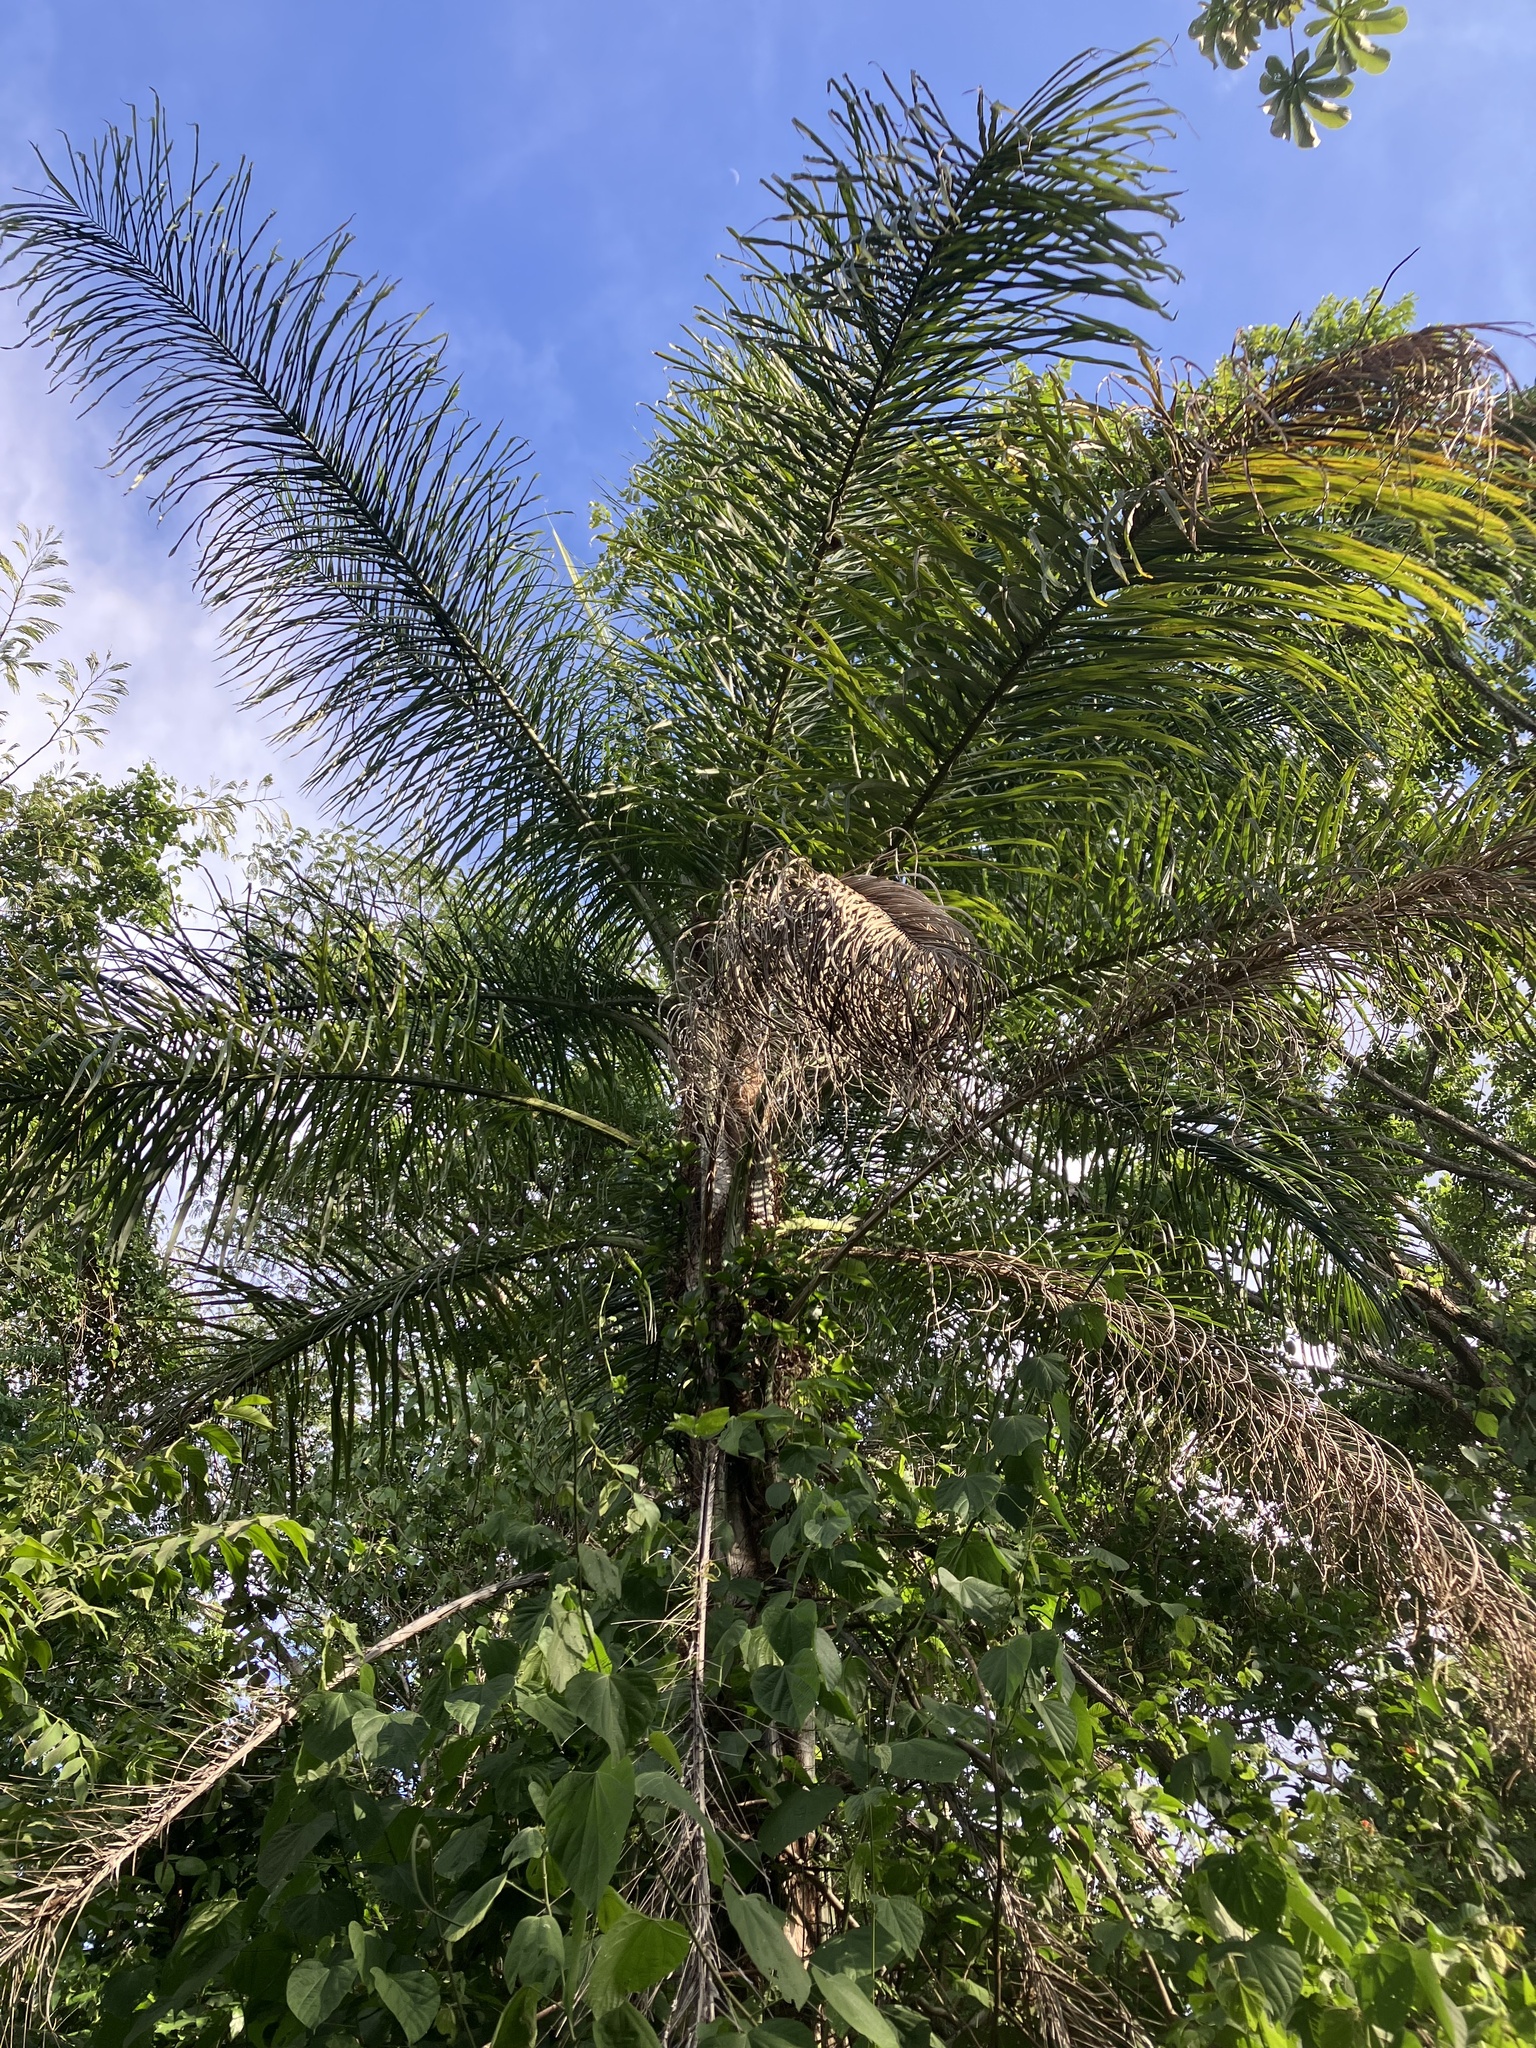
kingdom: Plantae
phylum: Tracheophyta
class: Liliopsida
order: Arecales
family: Arecaceae
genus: Acrocomia
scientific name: Acrocomia aculeata
